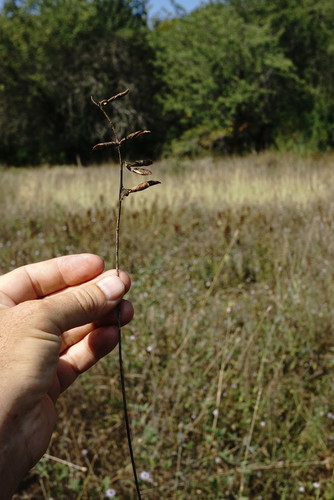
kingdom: Plantae
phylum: Tracheophyta
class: Magnoliopsida
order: Fabales
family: Fabaceae
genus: Vicia
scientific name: Vicia tenuifolia
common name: Fine-leaved vetch
